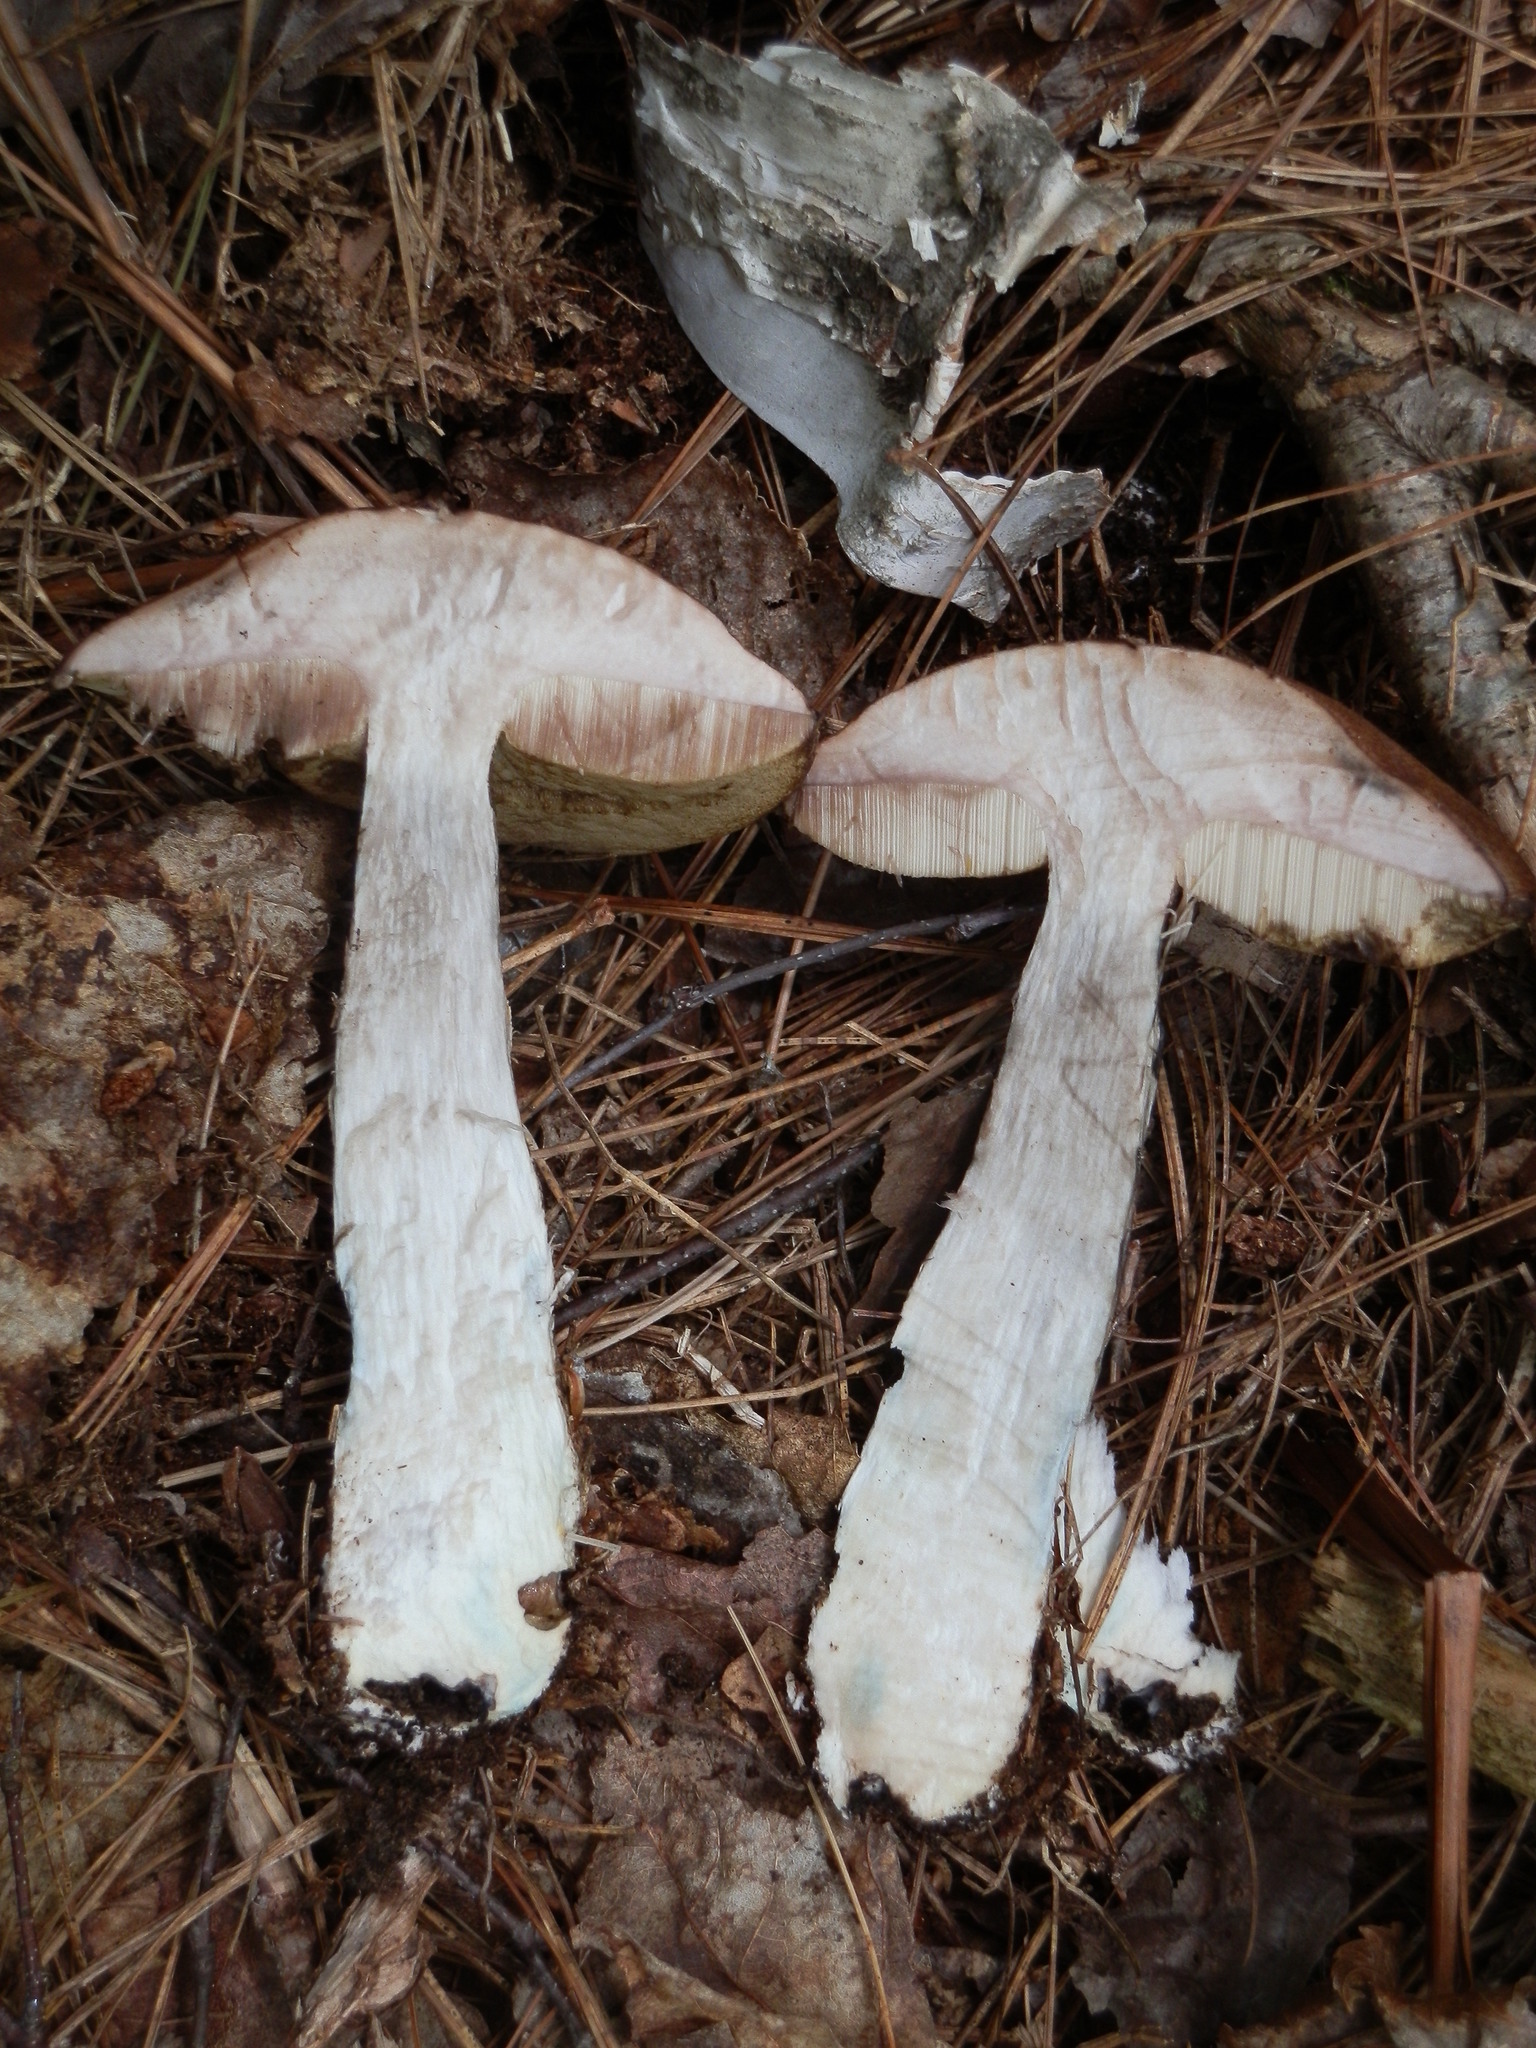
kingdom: Fungi
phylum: Basidiomycota
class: Agaricomycetes
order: Boletales
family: Boletaceae
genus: Leccinum
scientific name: Leccinum snellii
